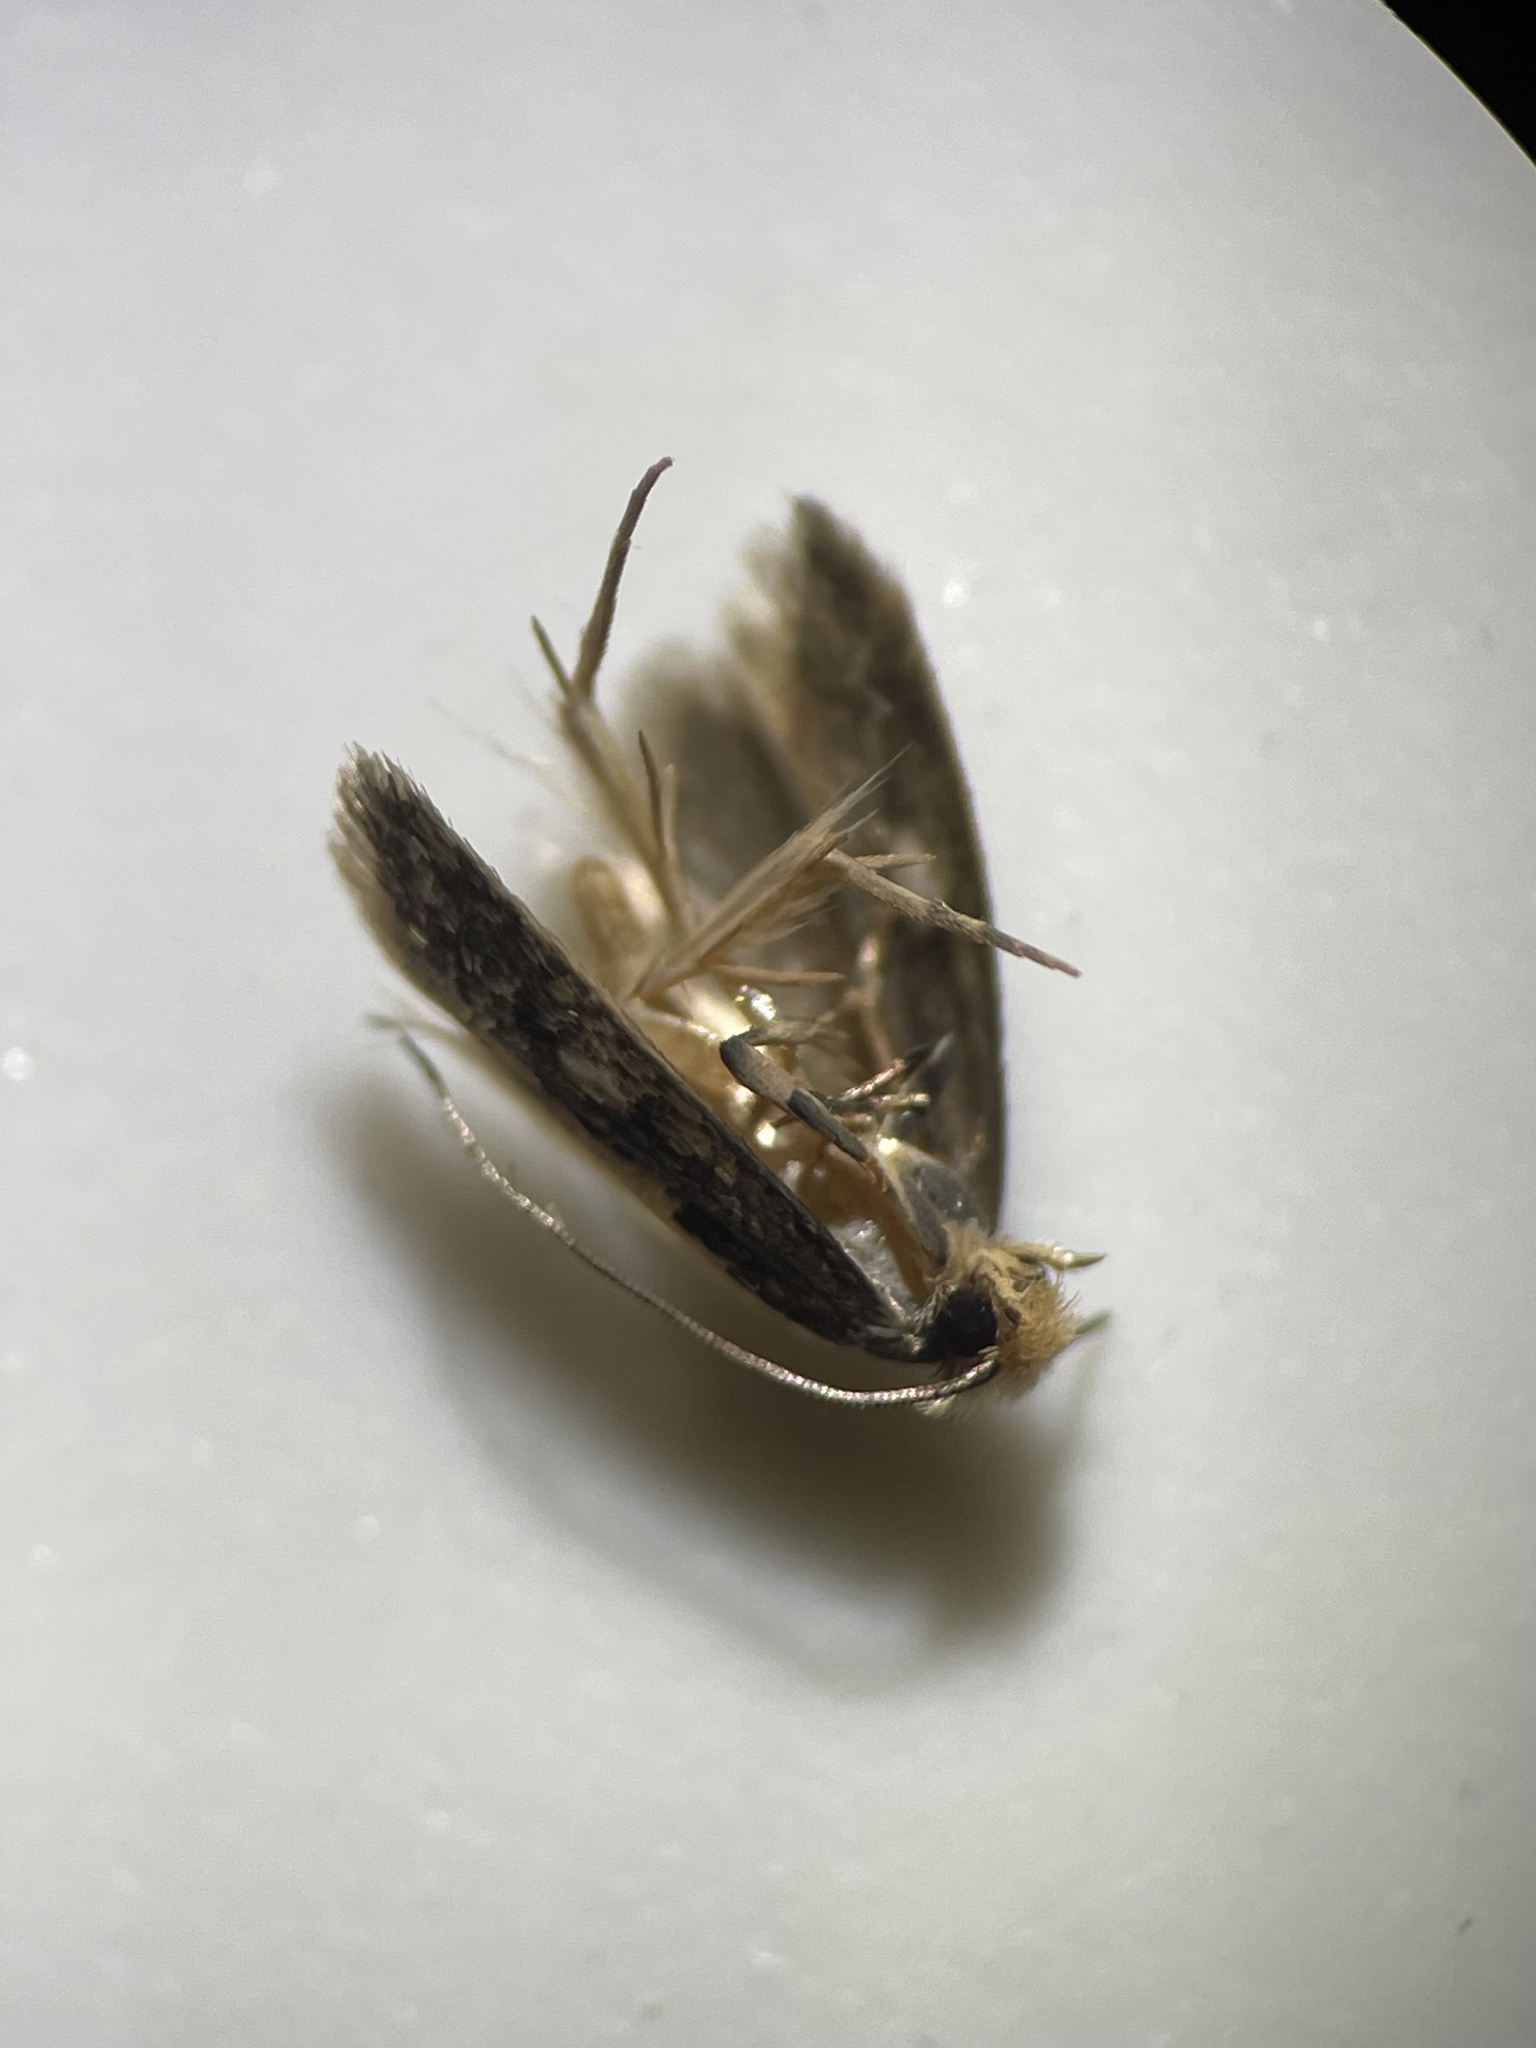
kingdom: Animalia
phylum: Arthropoda
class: Insecta
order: Lepidoptera
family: Tineidae
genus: Monopis
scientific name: Monopis crocicapitella
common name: Moth
